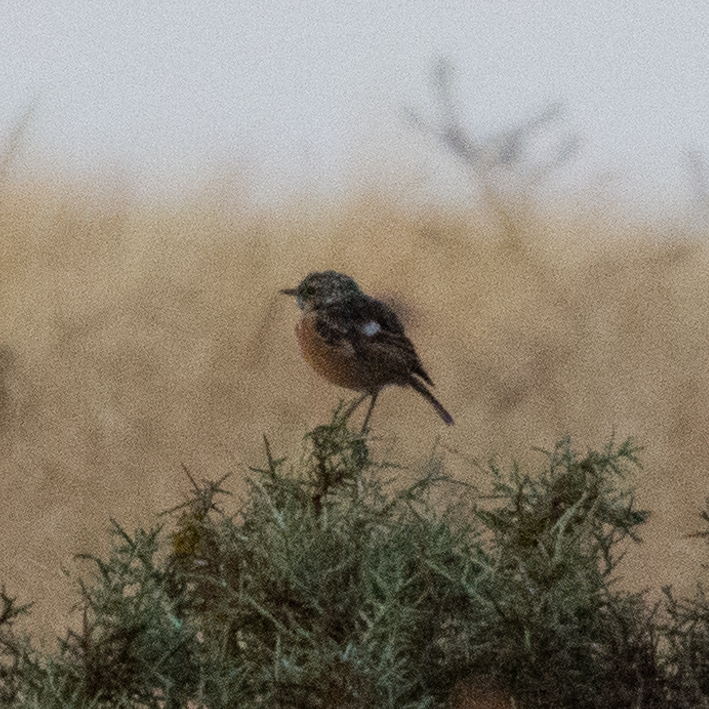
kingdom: Animalia
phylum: Chordata
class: Aves
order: Passeriformes
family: Muscicapidae
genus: Saxicola
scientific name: Saxicola rubicola
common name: European stonechat
